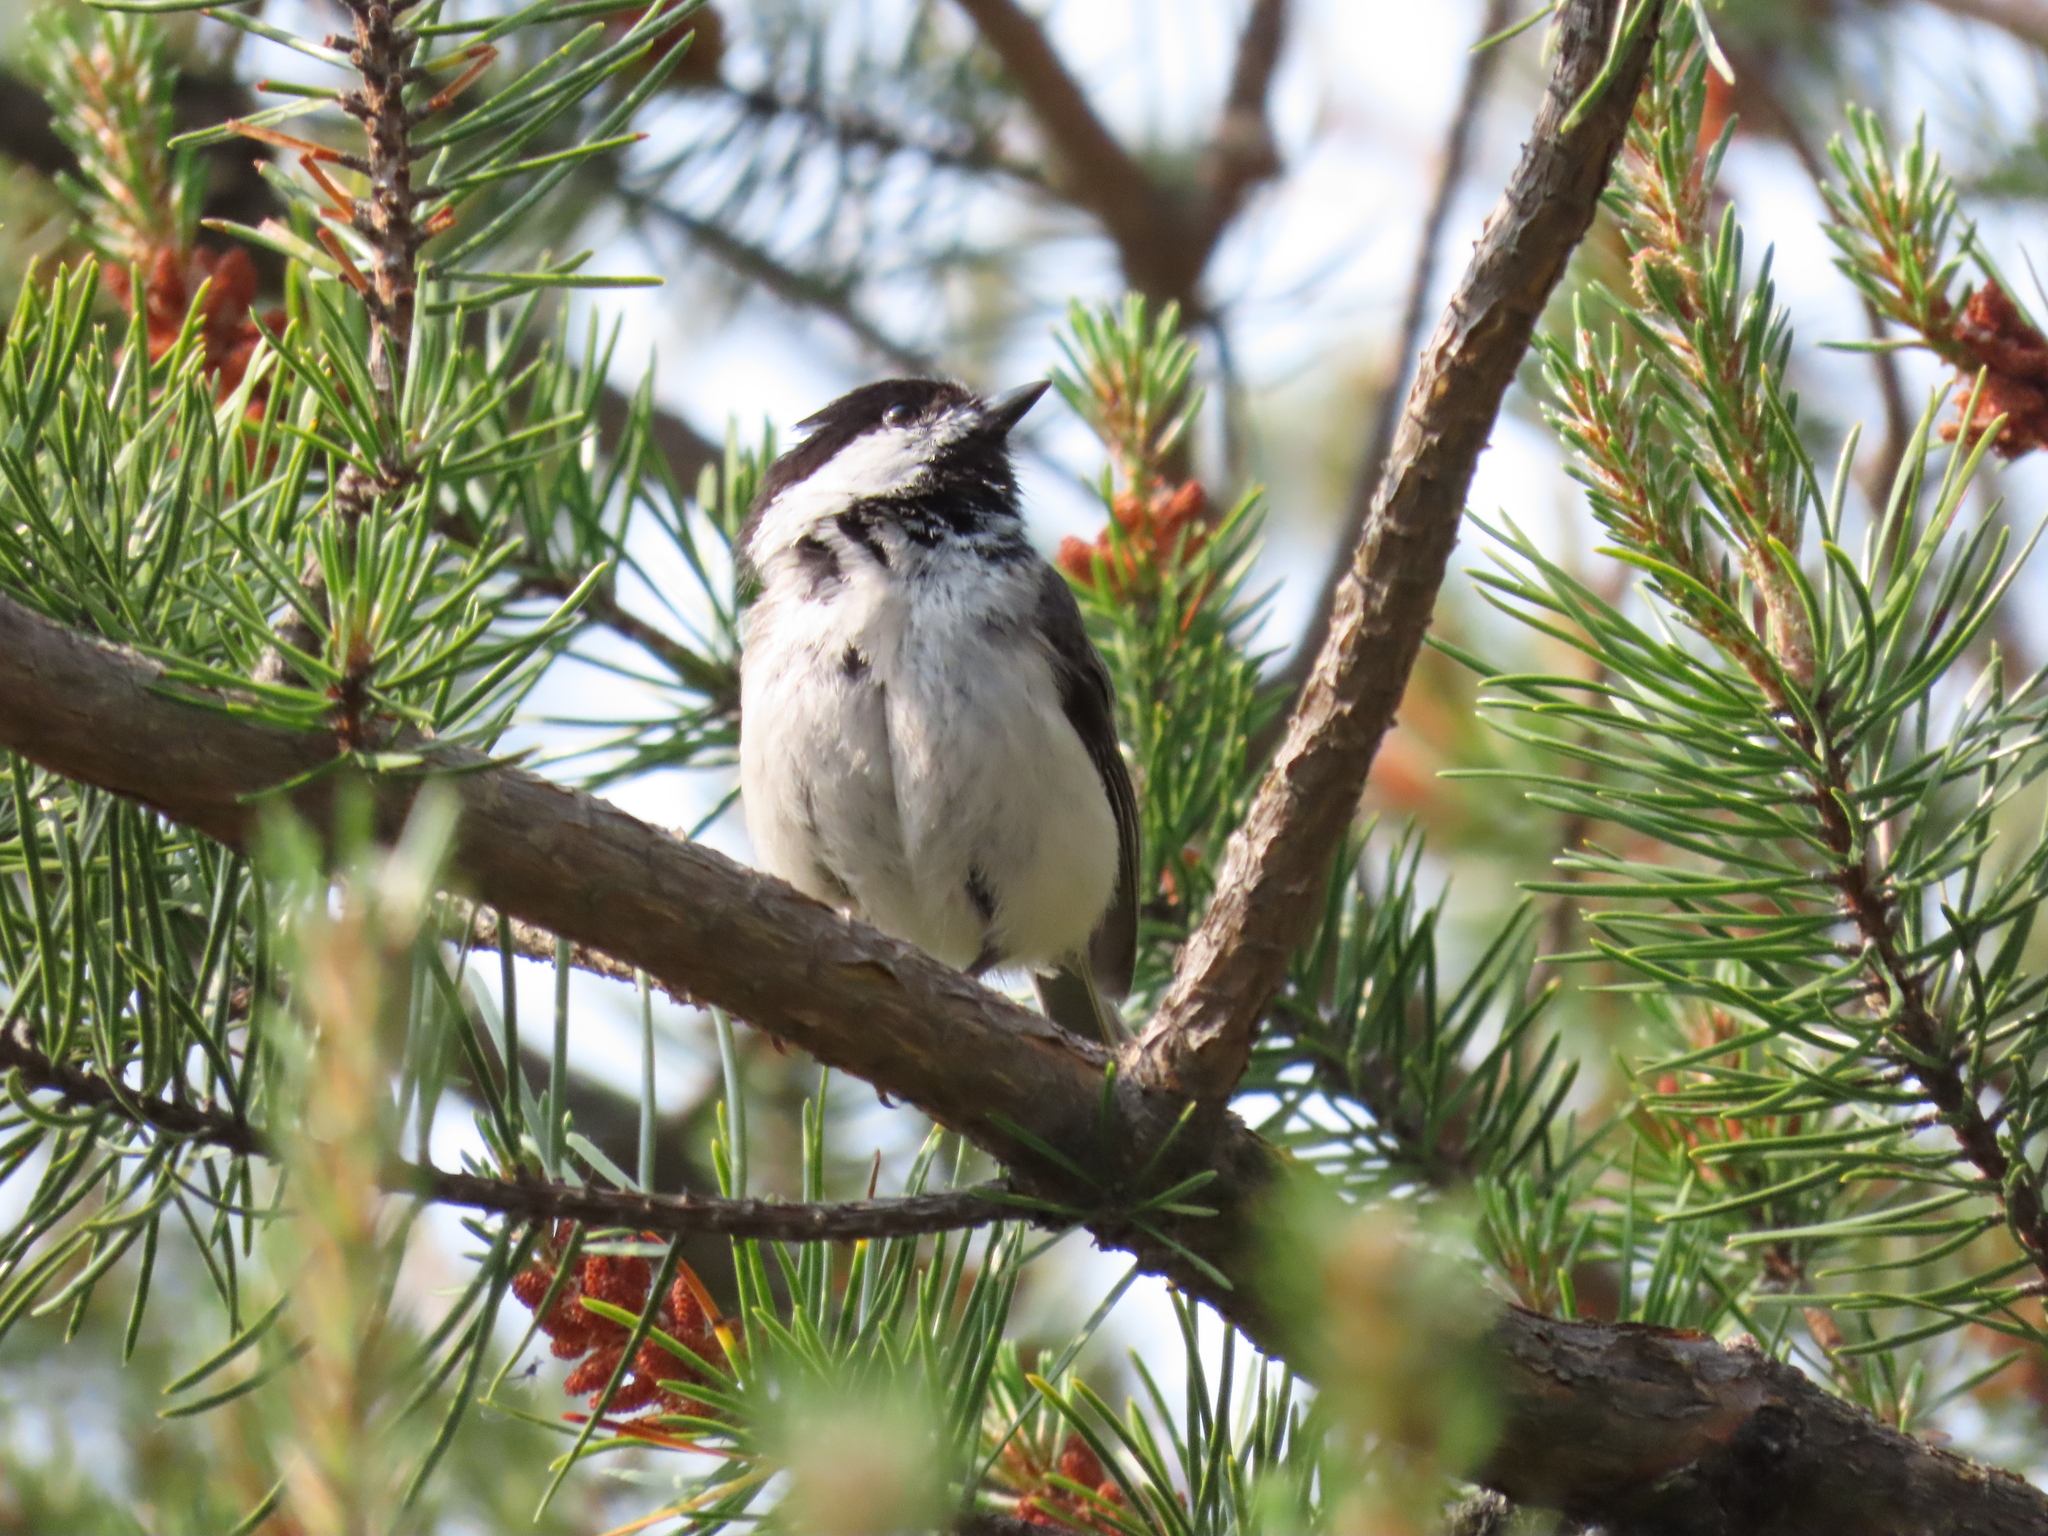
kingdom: Animalia
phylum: Chordata
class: Aves
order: Passeriformes
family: Paridae
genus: Poecile
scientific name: Poecile atricapillus
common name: Black-capped chickadee
